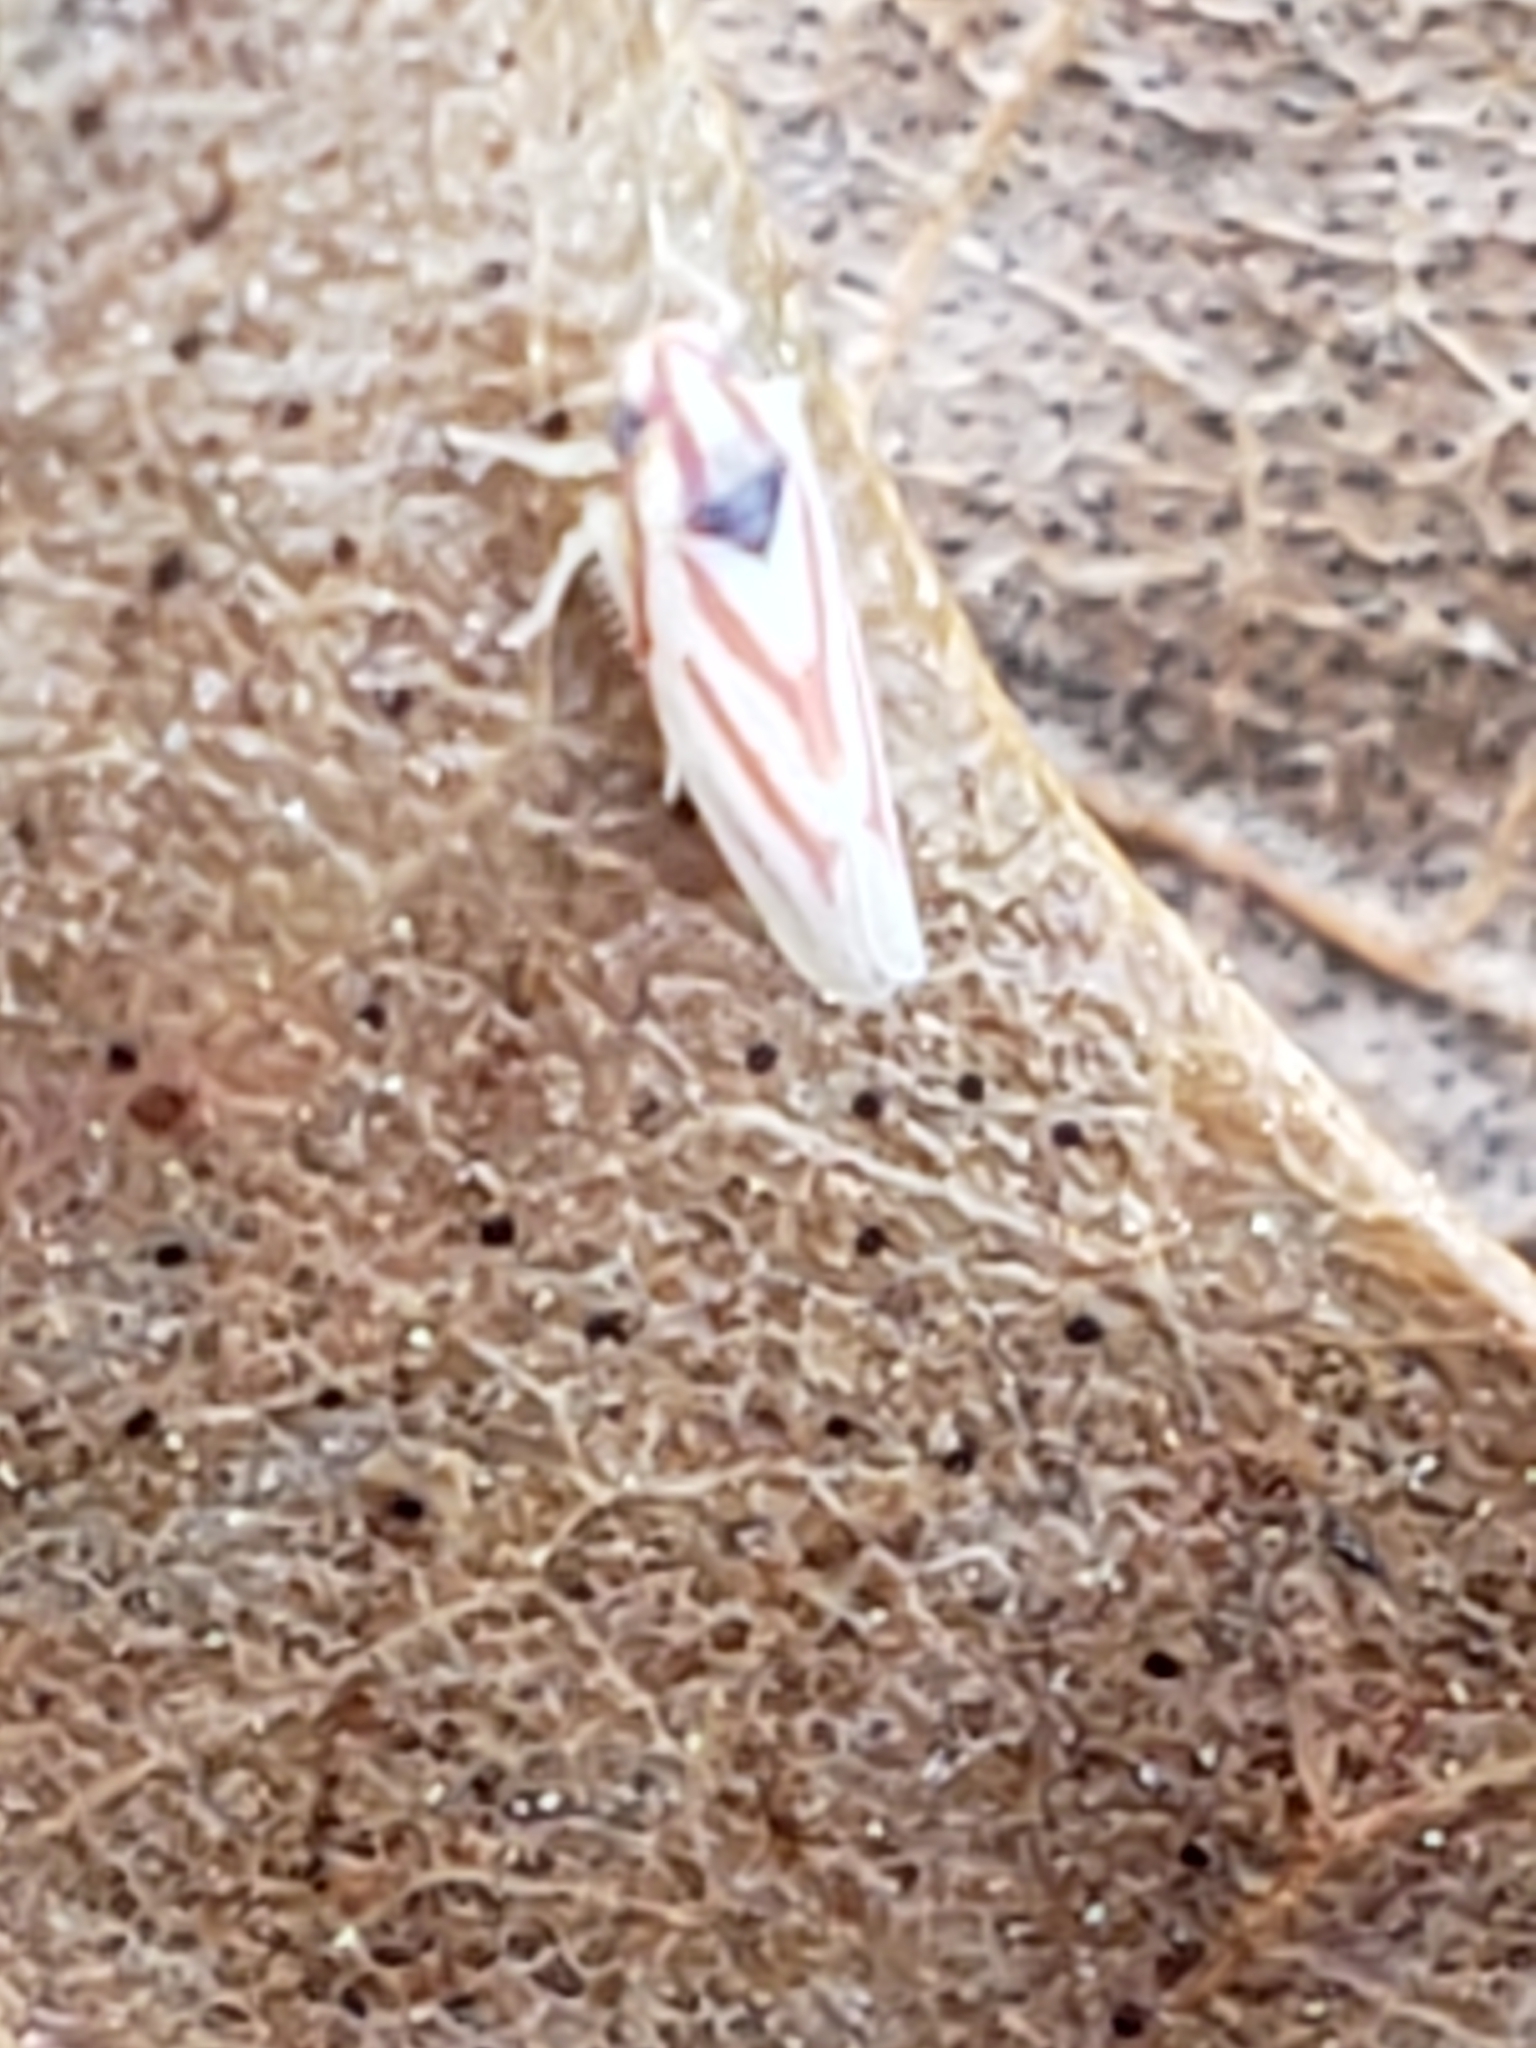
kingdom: Animalia
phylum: Arthropoda
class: Insecta
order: Hemiptera
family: Cicadellidae
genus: Erythridula
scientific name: Erythridula noeva
